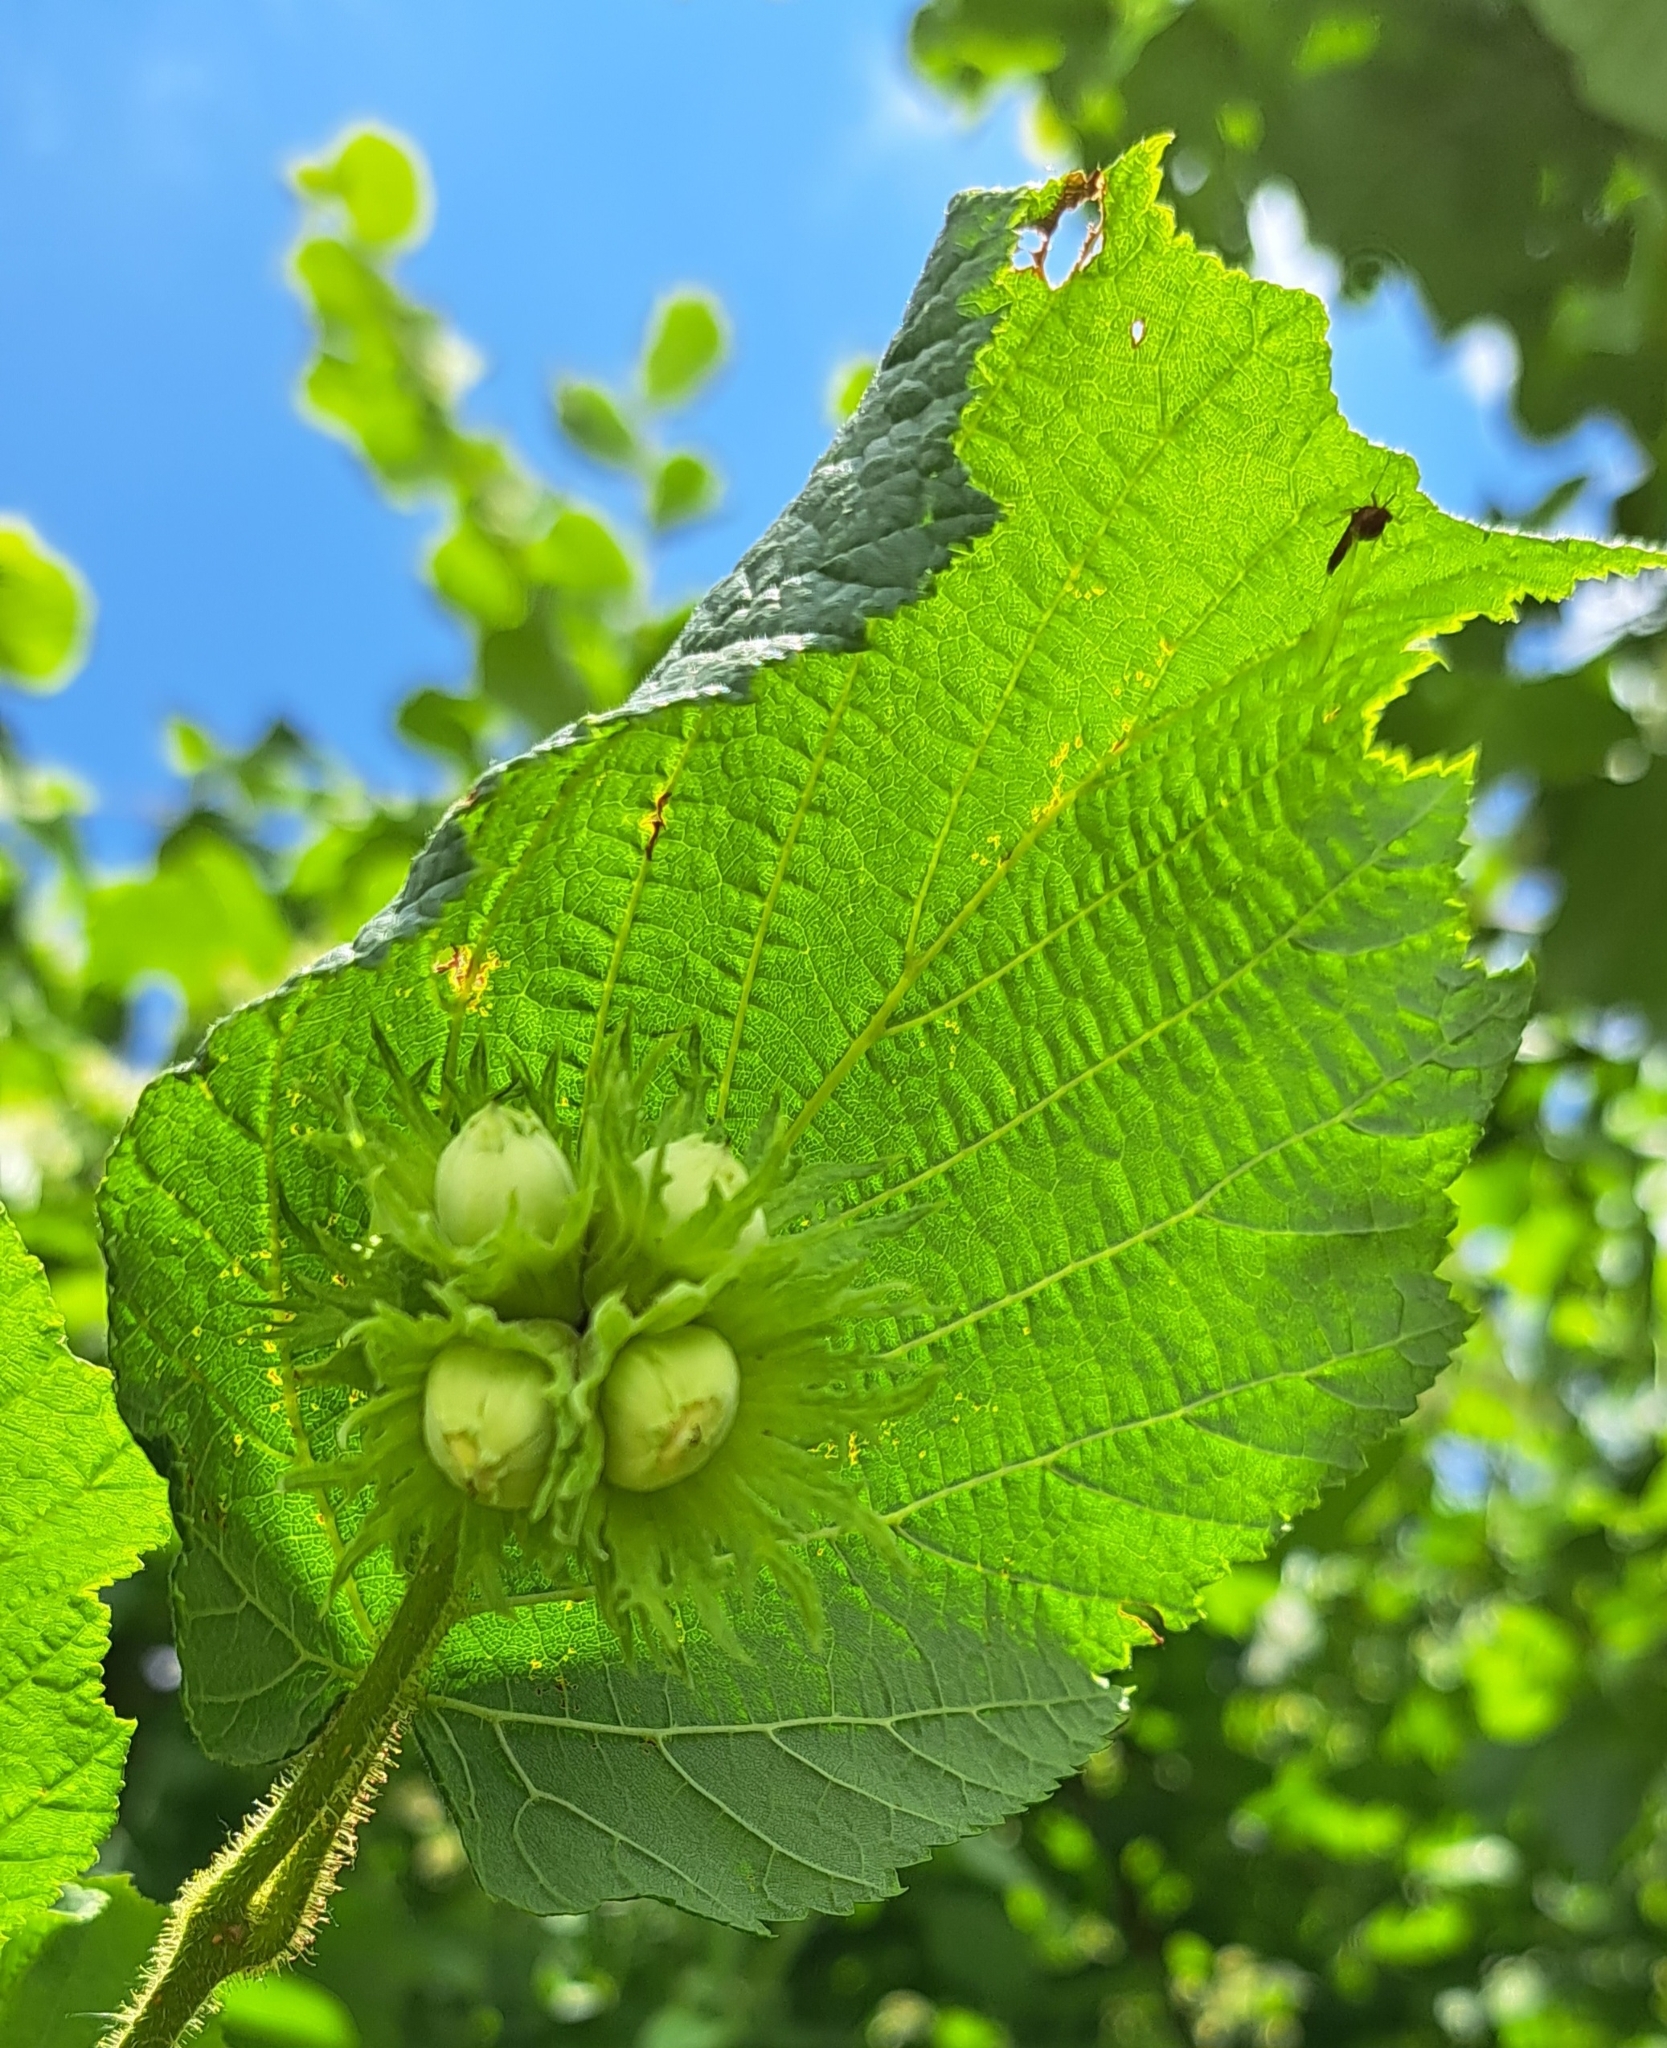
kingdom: Plantae
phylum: Tracheophyta
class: Magnoliopsida
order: Fagales
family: Betulaceae
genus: Corylus
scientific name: Corylus avellana
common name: European hazel
